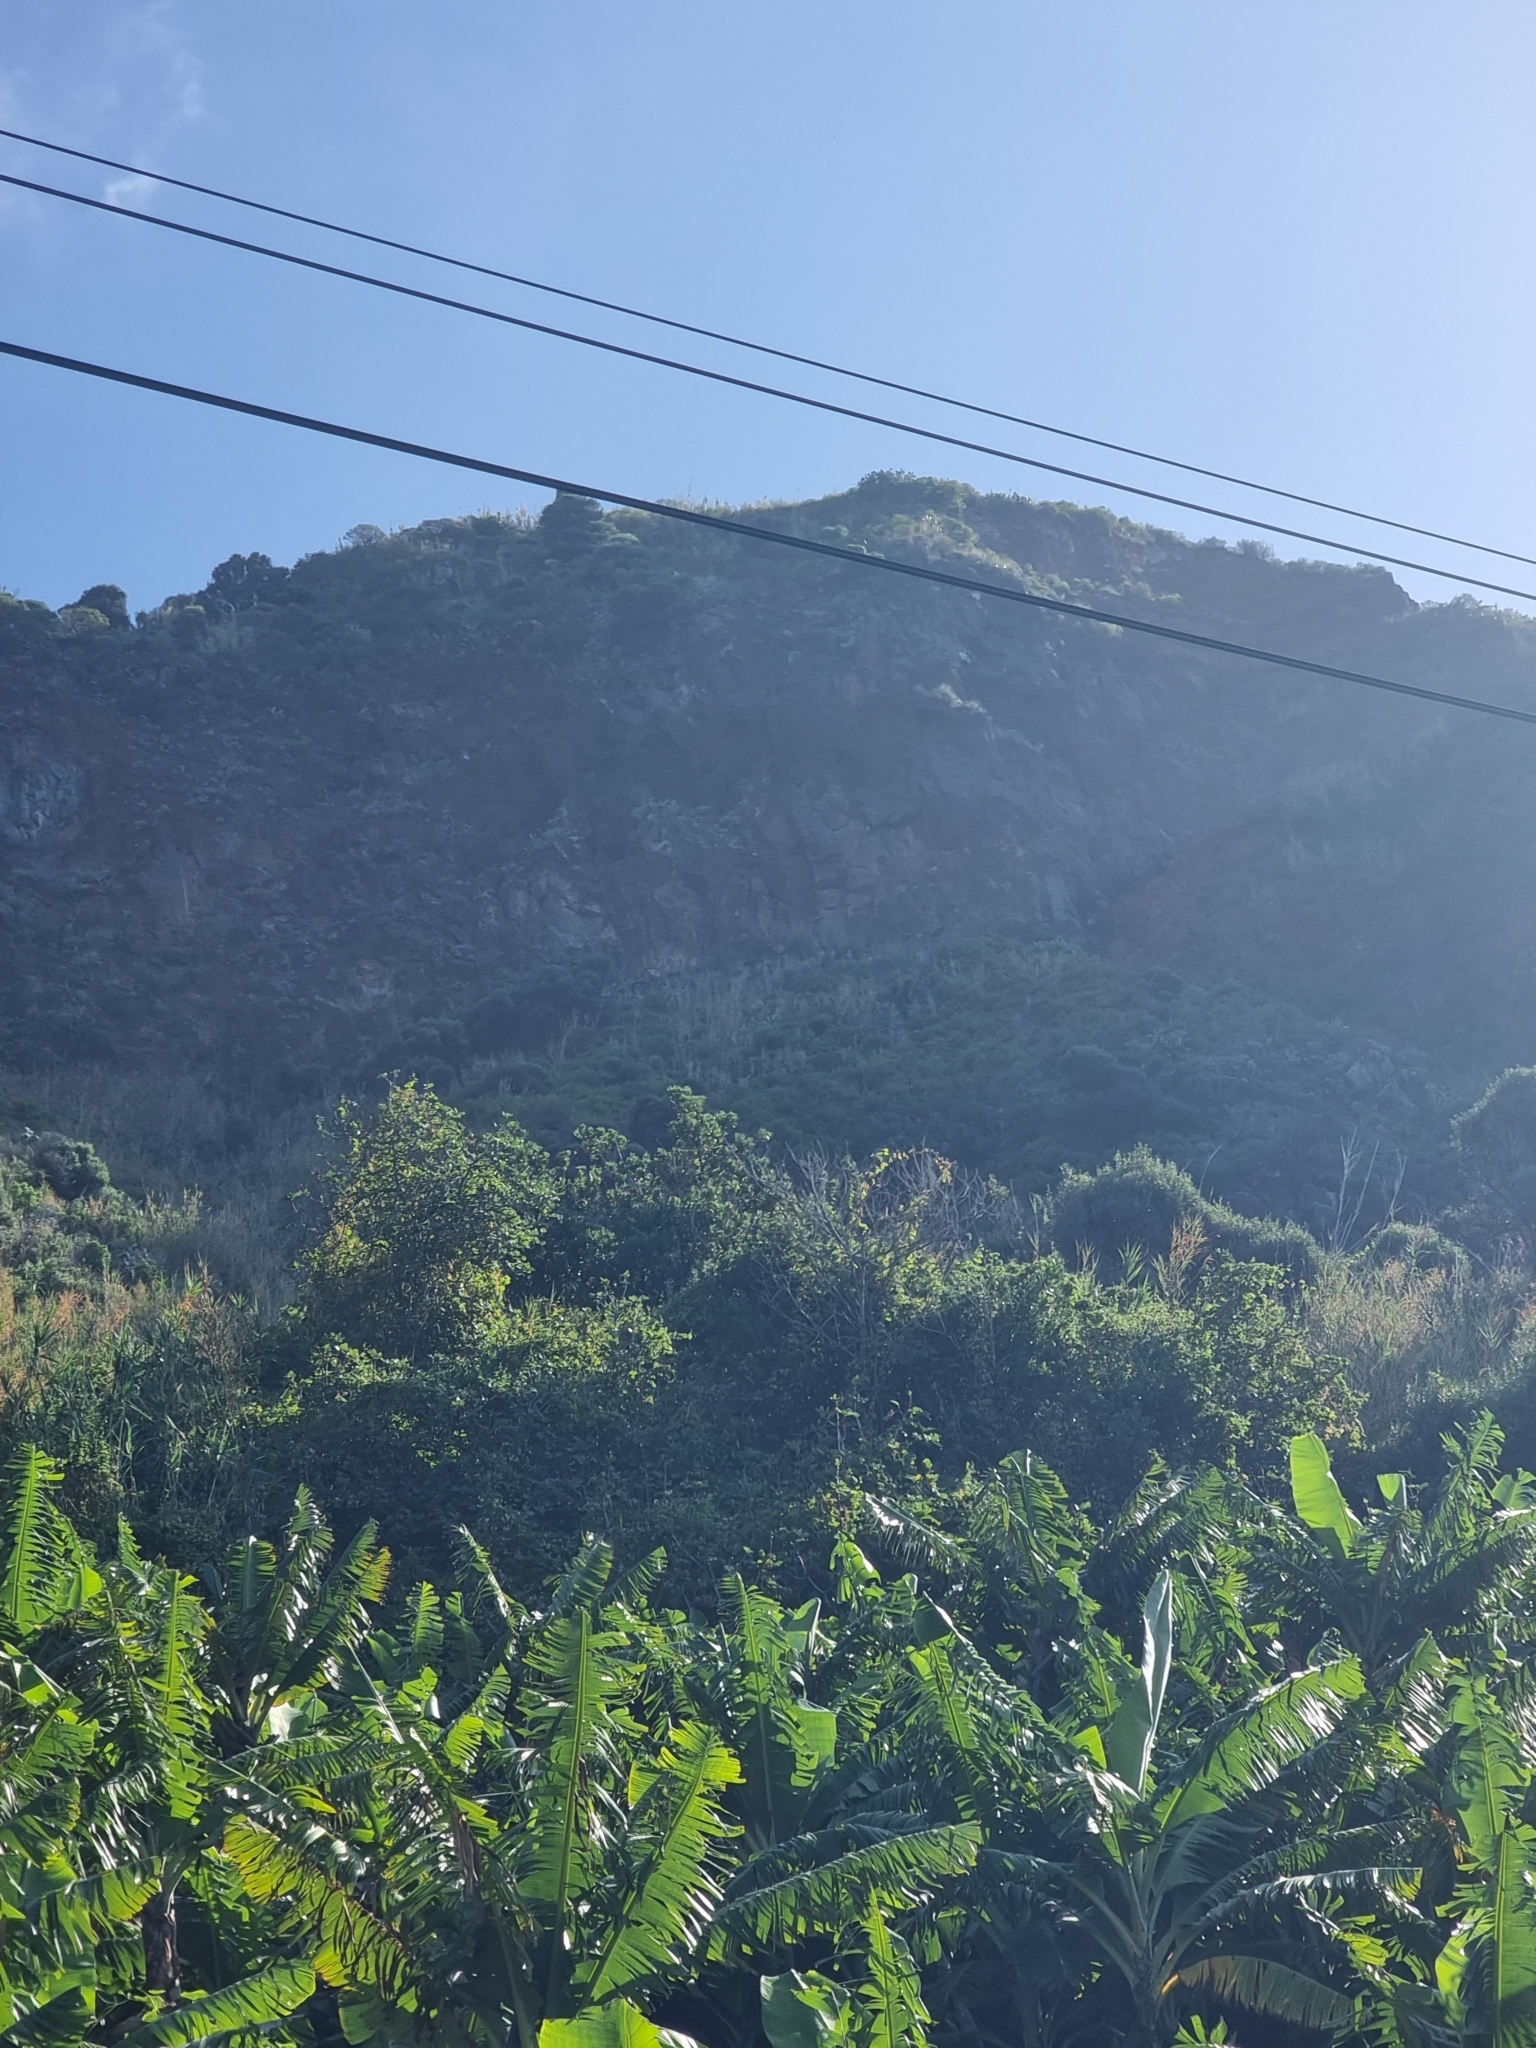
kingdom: Plantae
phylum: Tracheophyta
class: Magnoliopsida
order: Malpighiales
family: Euphorbiaceae
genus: Euphorbia
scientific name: Euphorbia piscatoria
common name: Fish-stunning spurge
